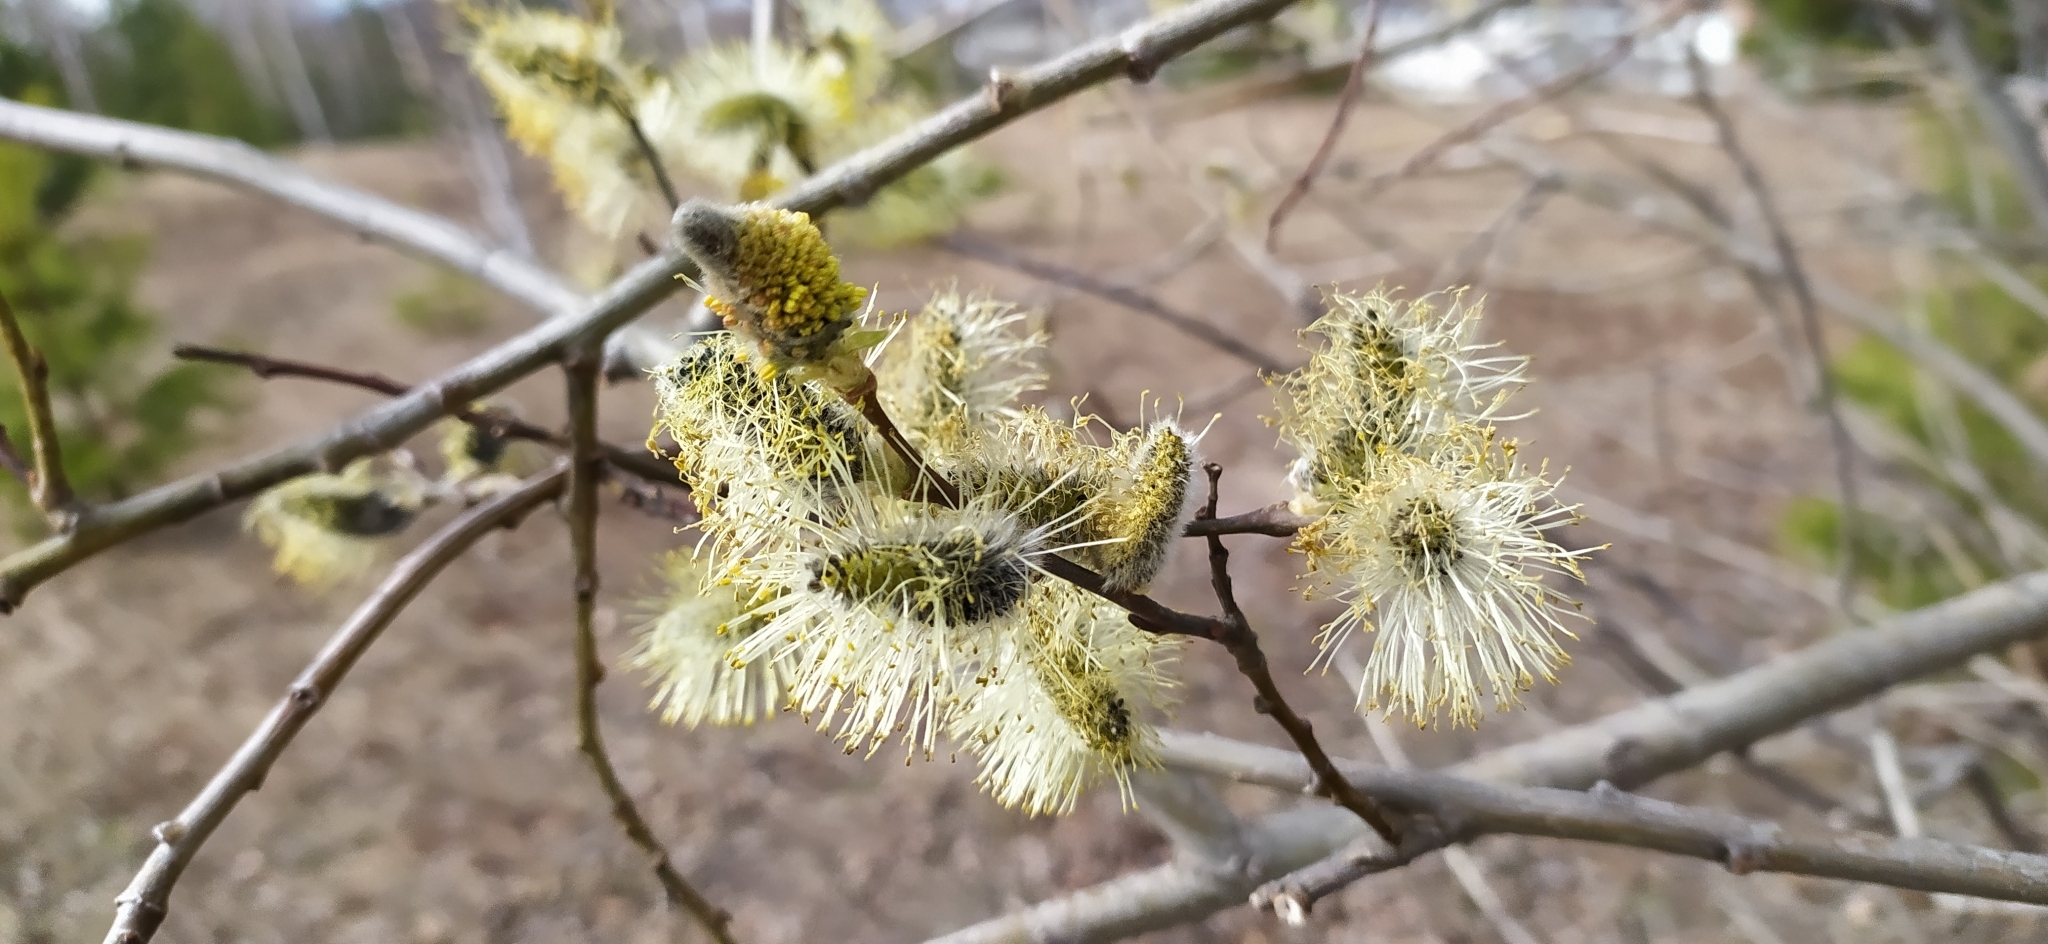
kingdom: Plantae
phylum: Tracheophyta
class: Magnoliopsida
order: Malpighiales
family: Salicaceae
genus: Salix
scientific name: Salix caprea
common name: Goat willow
